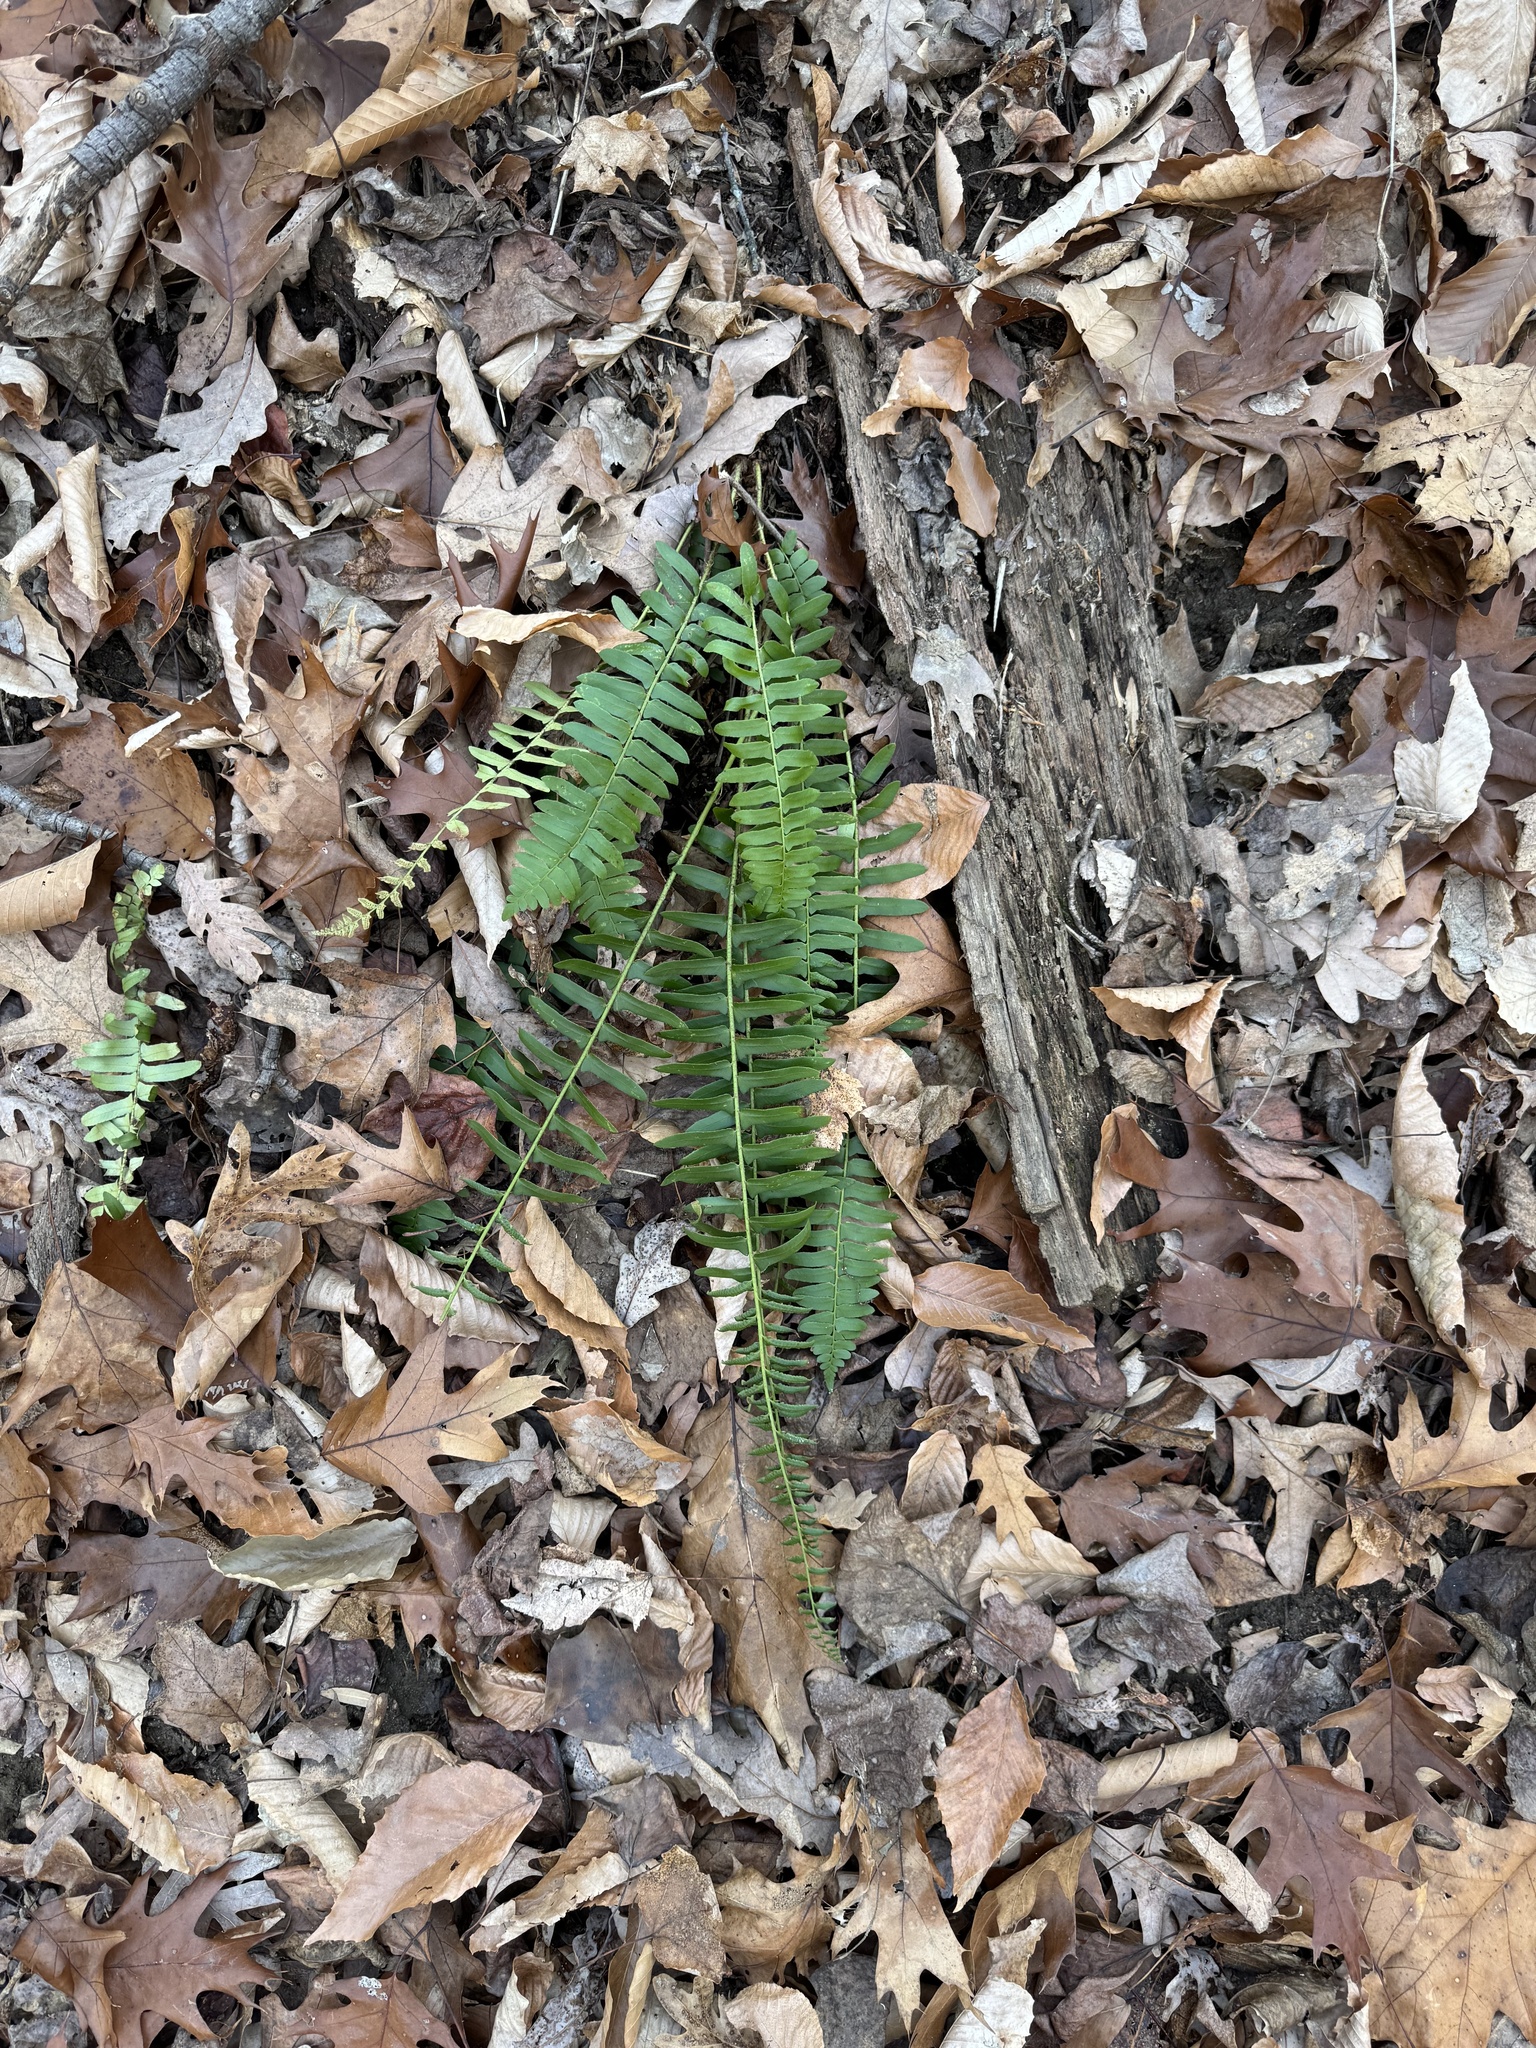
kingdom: Plantae
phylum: Tracheophyta
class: Polypodiopsida
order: Polypodiales
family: Dryopteridaceae
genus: Polystichum
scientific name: Polystichum acrostichoides
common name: Christmas fern
